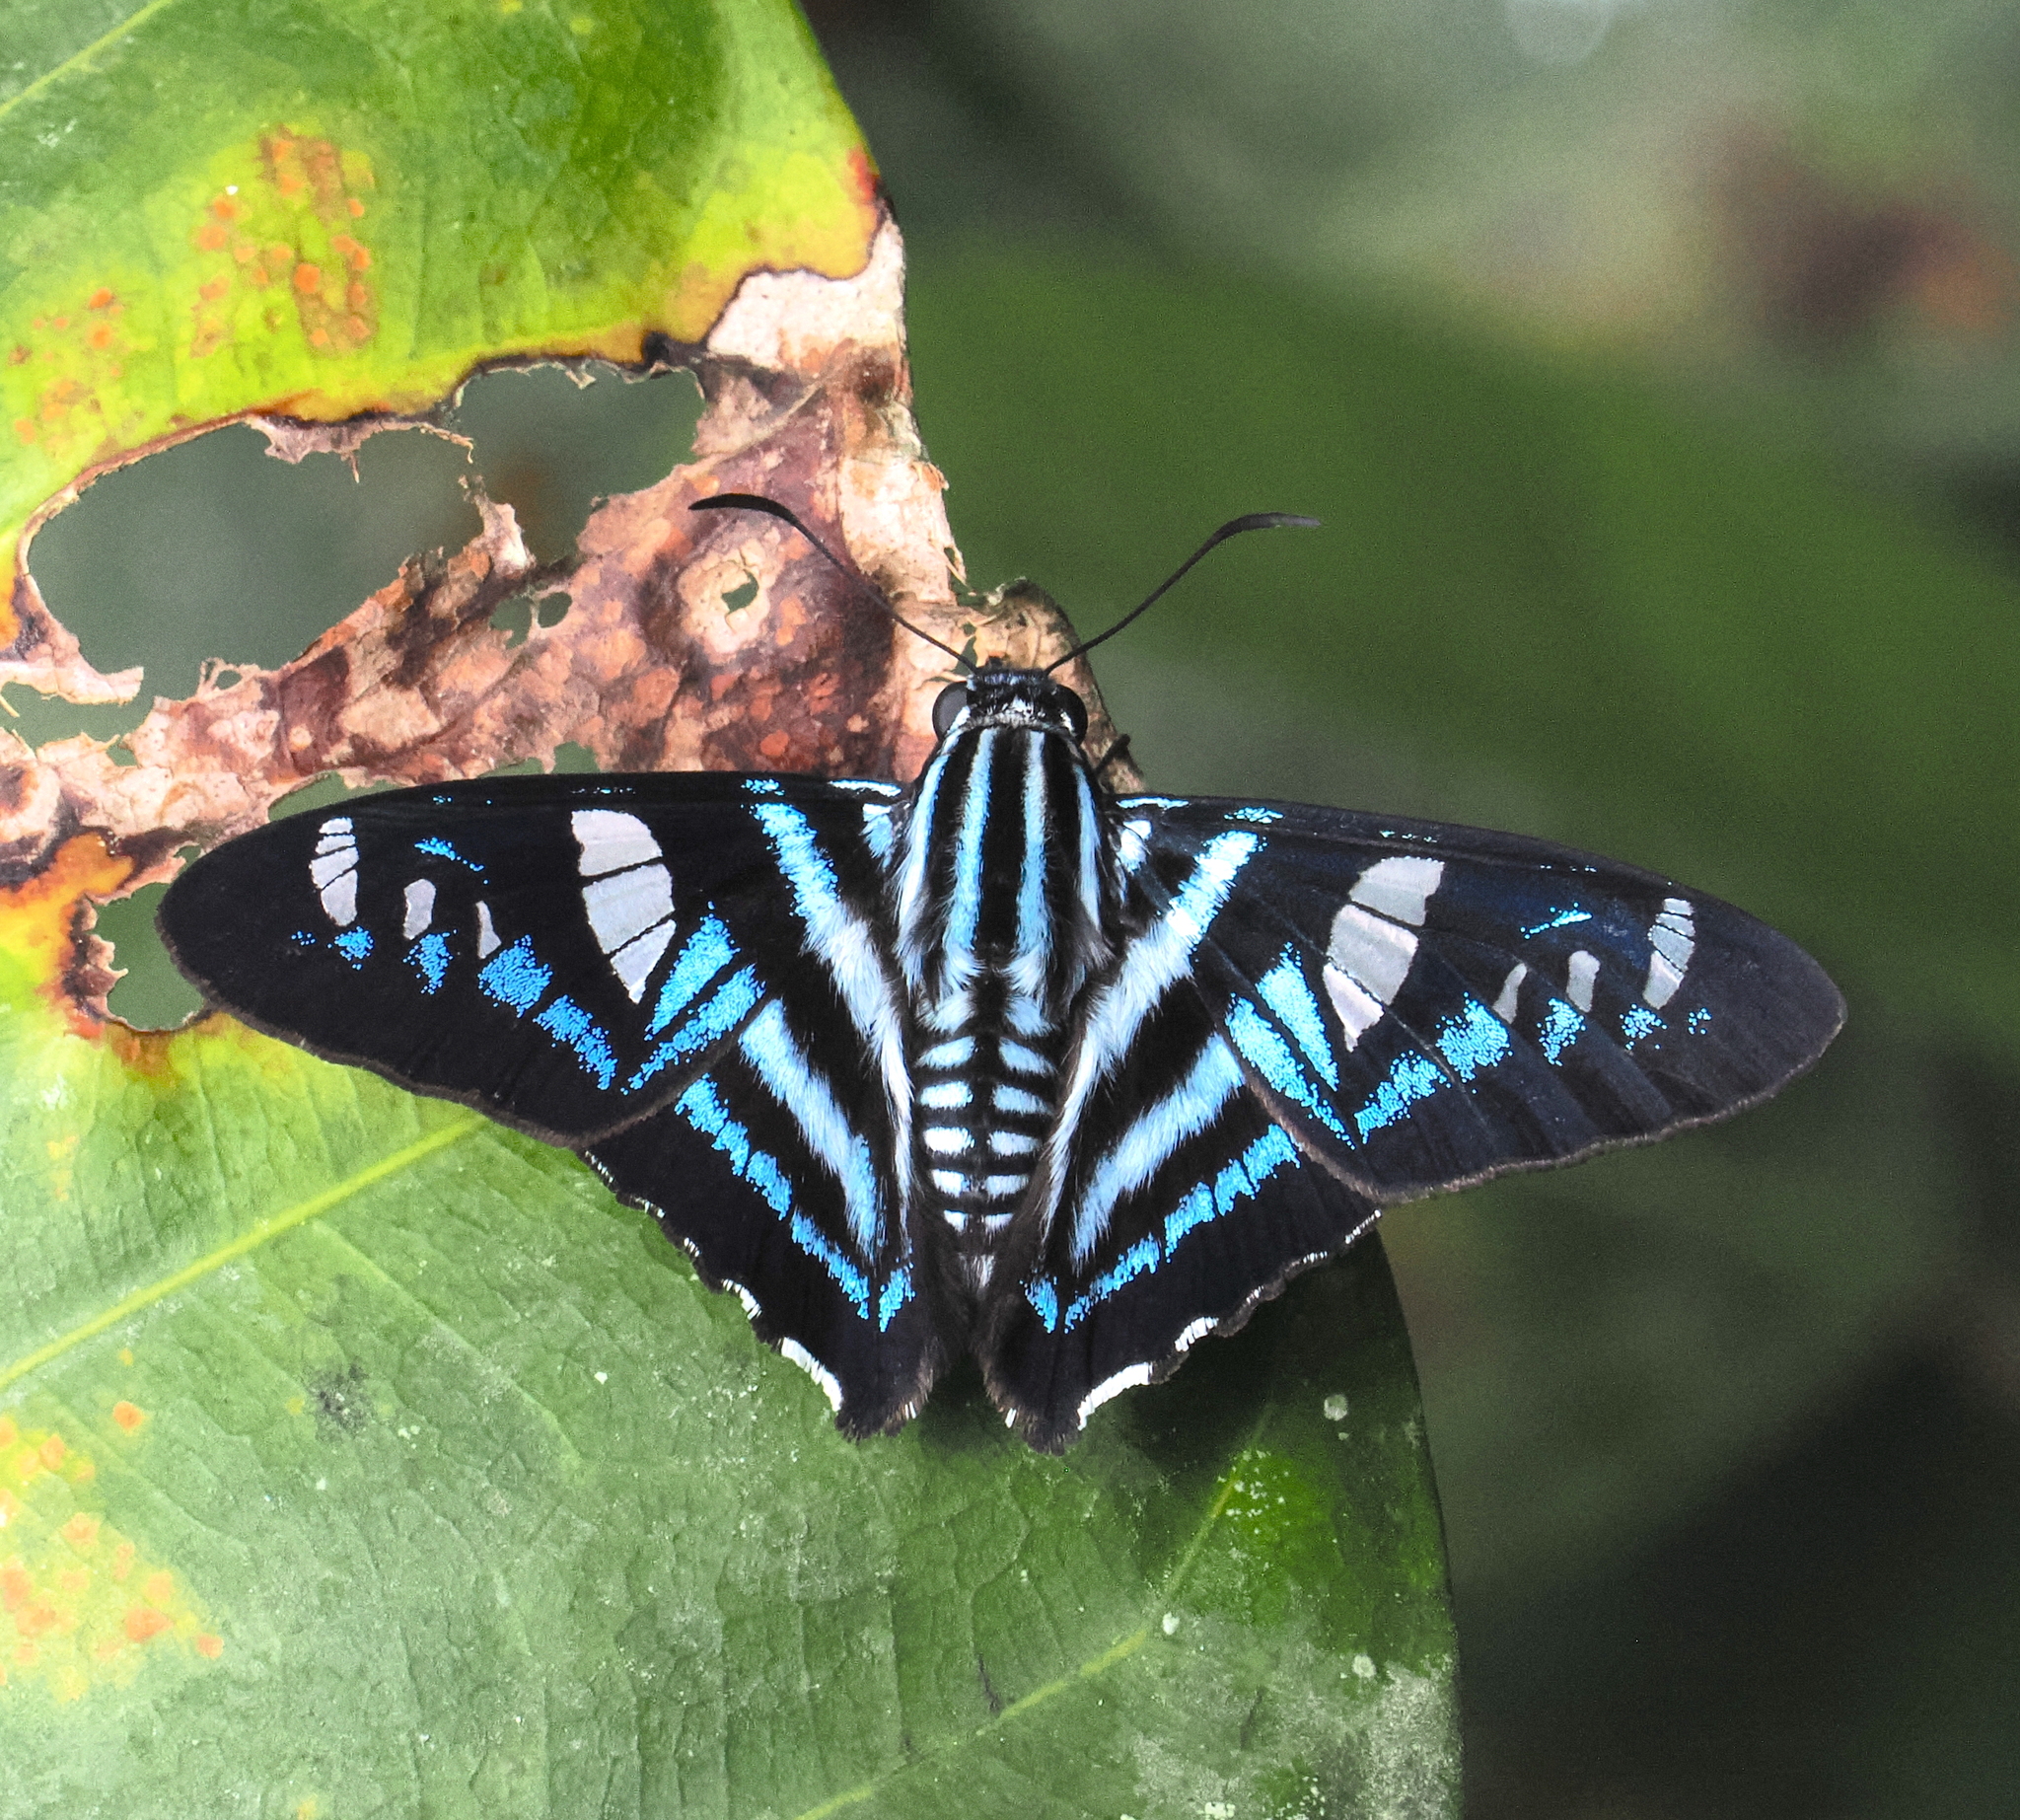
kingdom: Animalia
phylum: Arthropoda
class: Insecta
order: Lepidoptera
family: Hesperiidae
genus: Elbella
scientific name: Elbella polyzona
